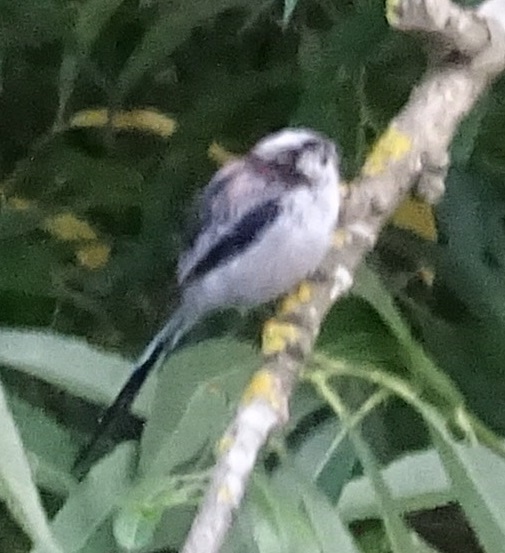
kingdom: Animalia
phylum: Chordata
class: Aves
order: Passeriformes
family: Aegithalidae
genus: Aegithalos
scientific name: Aegithalos caudatus
